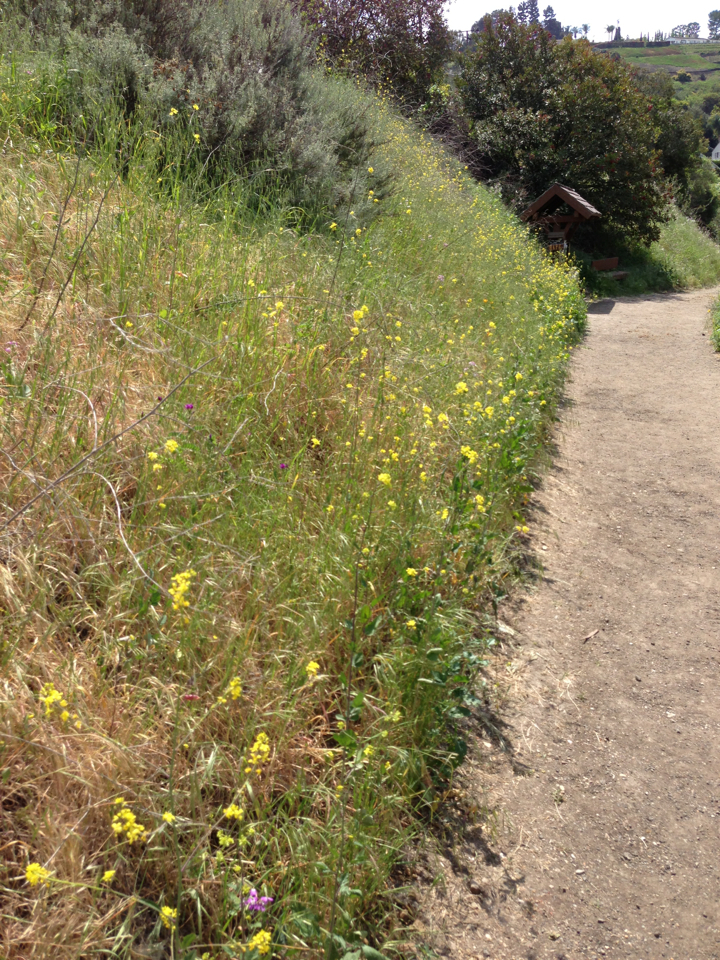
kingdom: Plantae
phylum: Tracheophyta
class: Magnoliopsida
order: Brassicales
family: Brassicaceae
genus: Brassica
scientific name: Brassica nigra
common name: Black mustard
